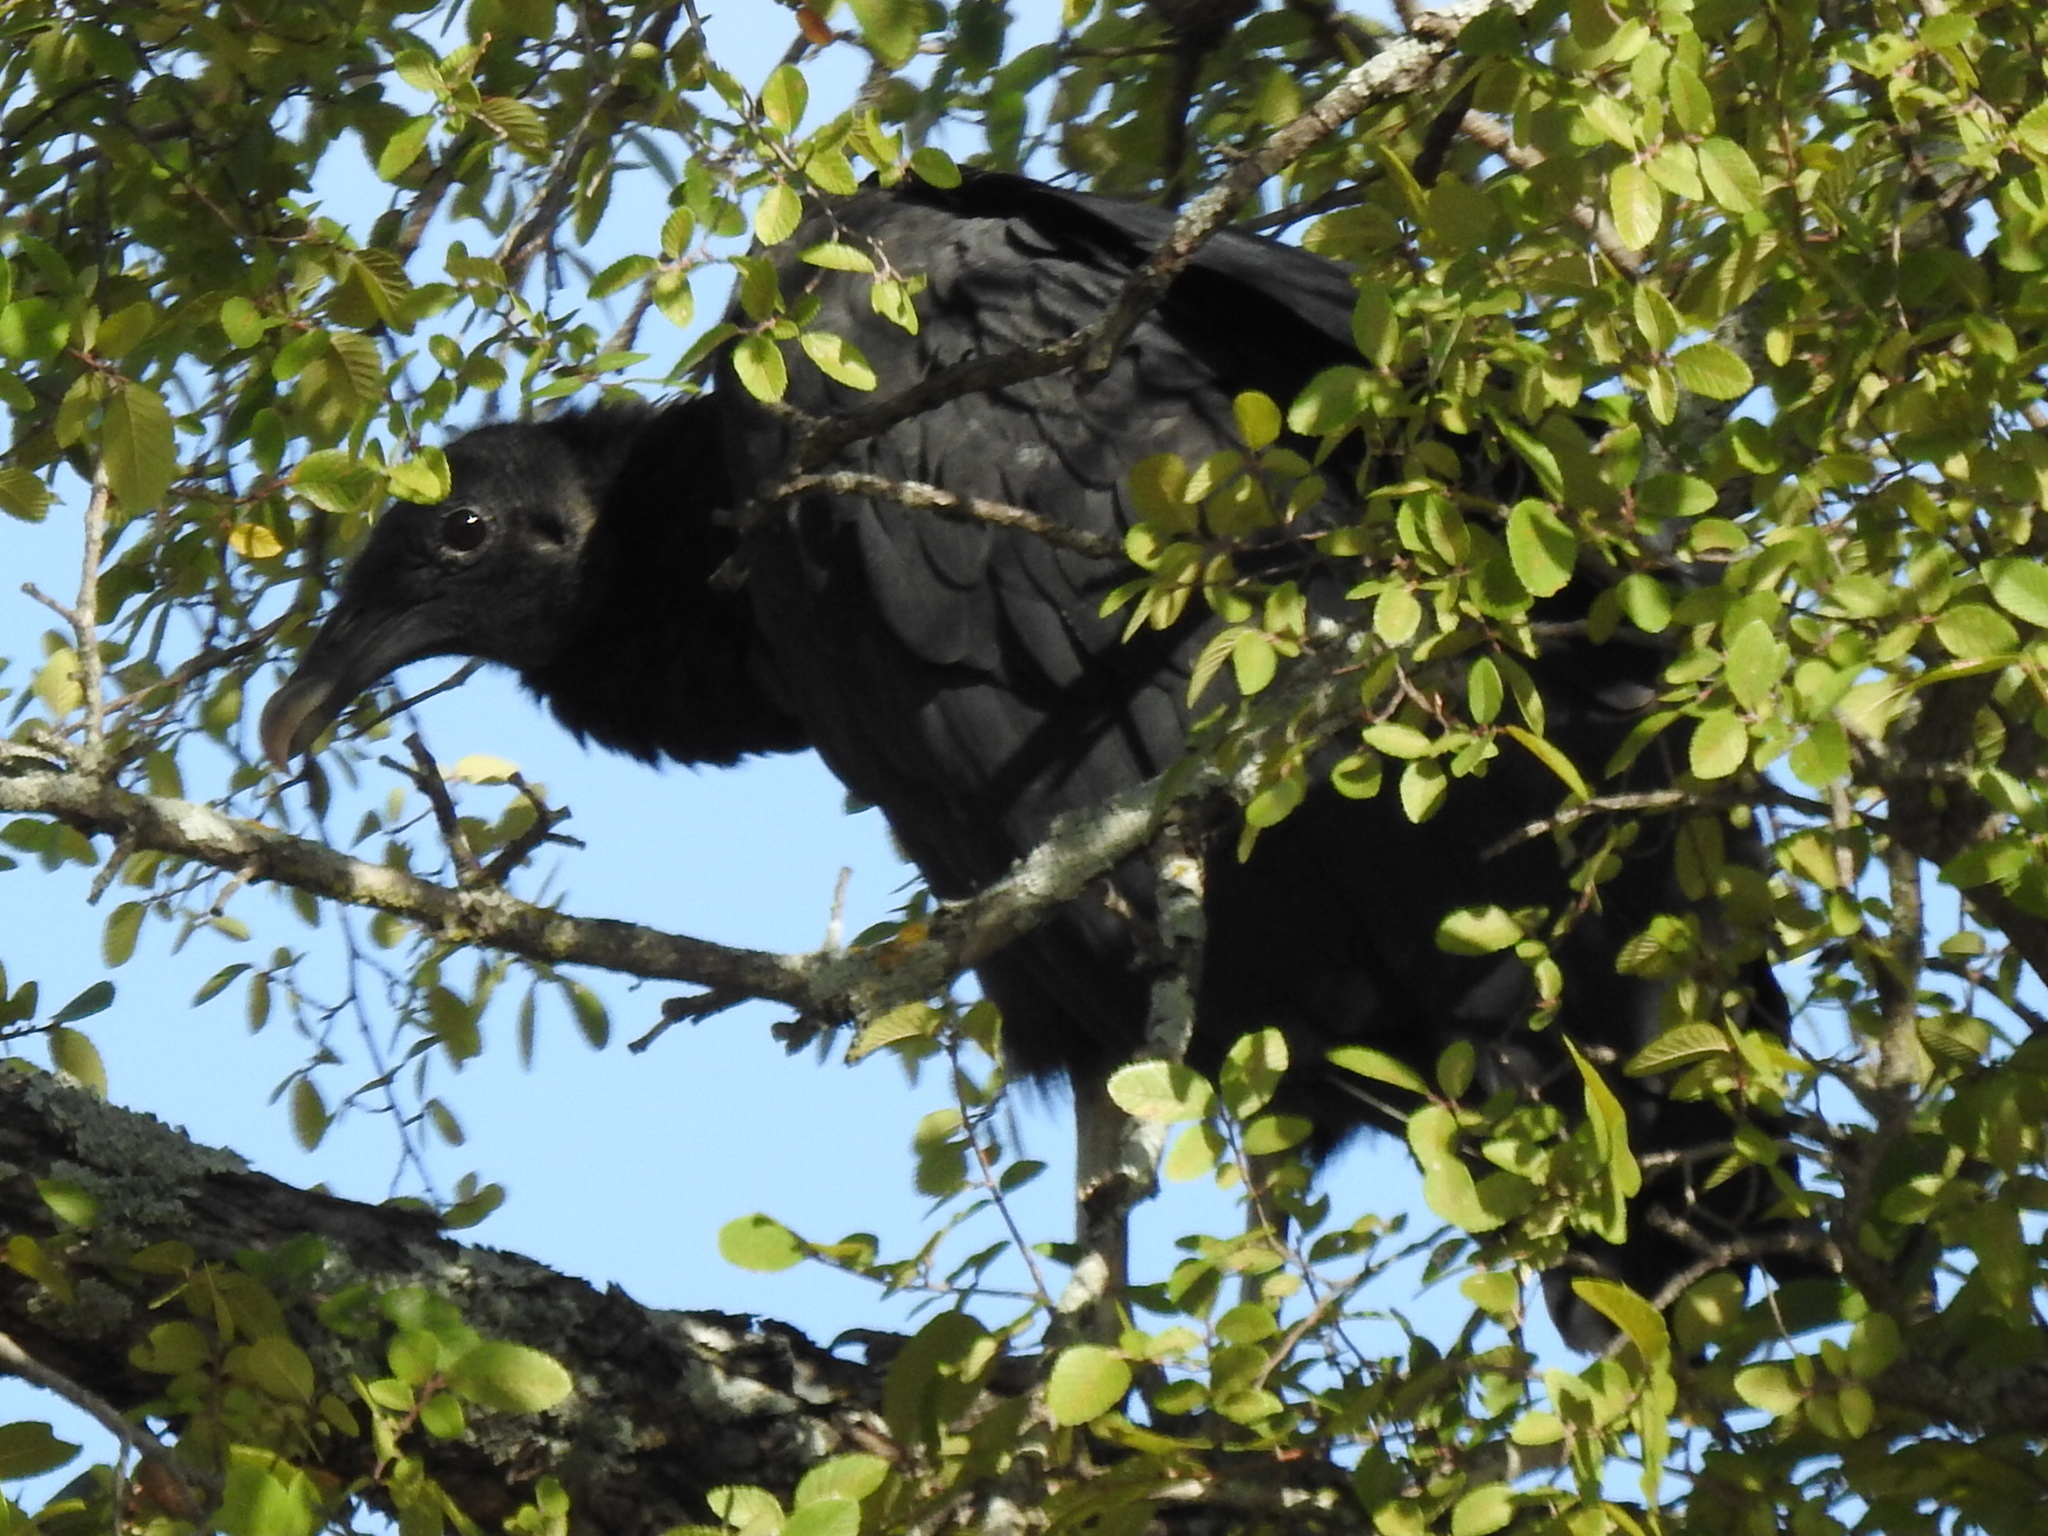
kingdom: Animalia
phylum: Chordata
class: Aves
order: Accipitriformes
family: Cathartidae
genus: Coragyps
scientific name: Coragyps atratus
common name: Black vulture
